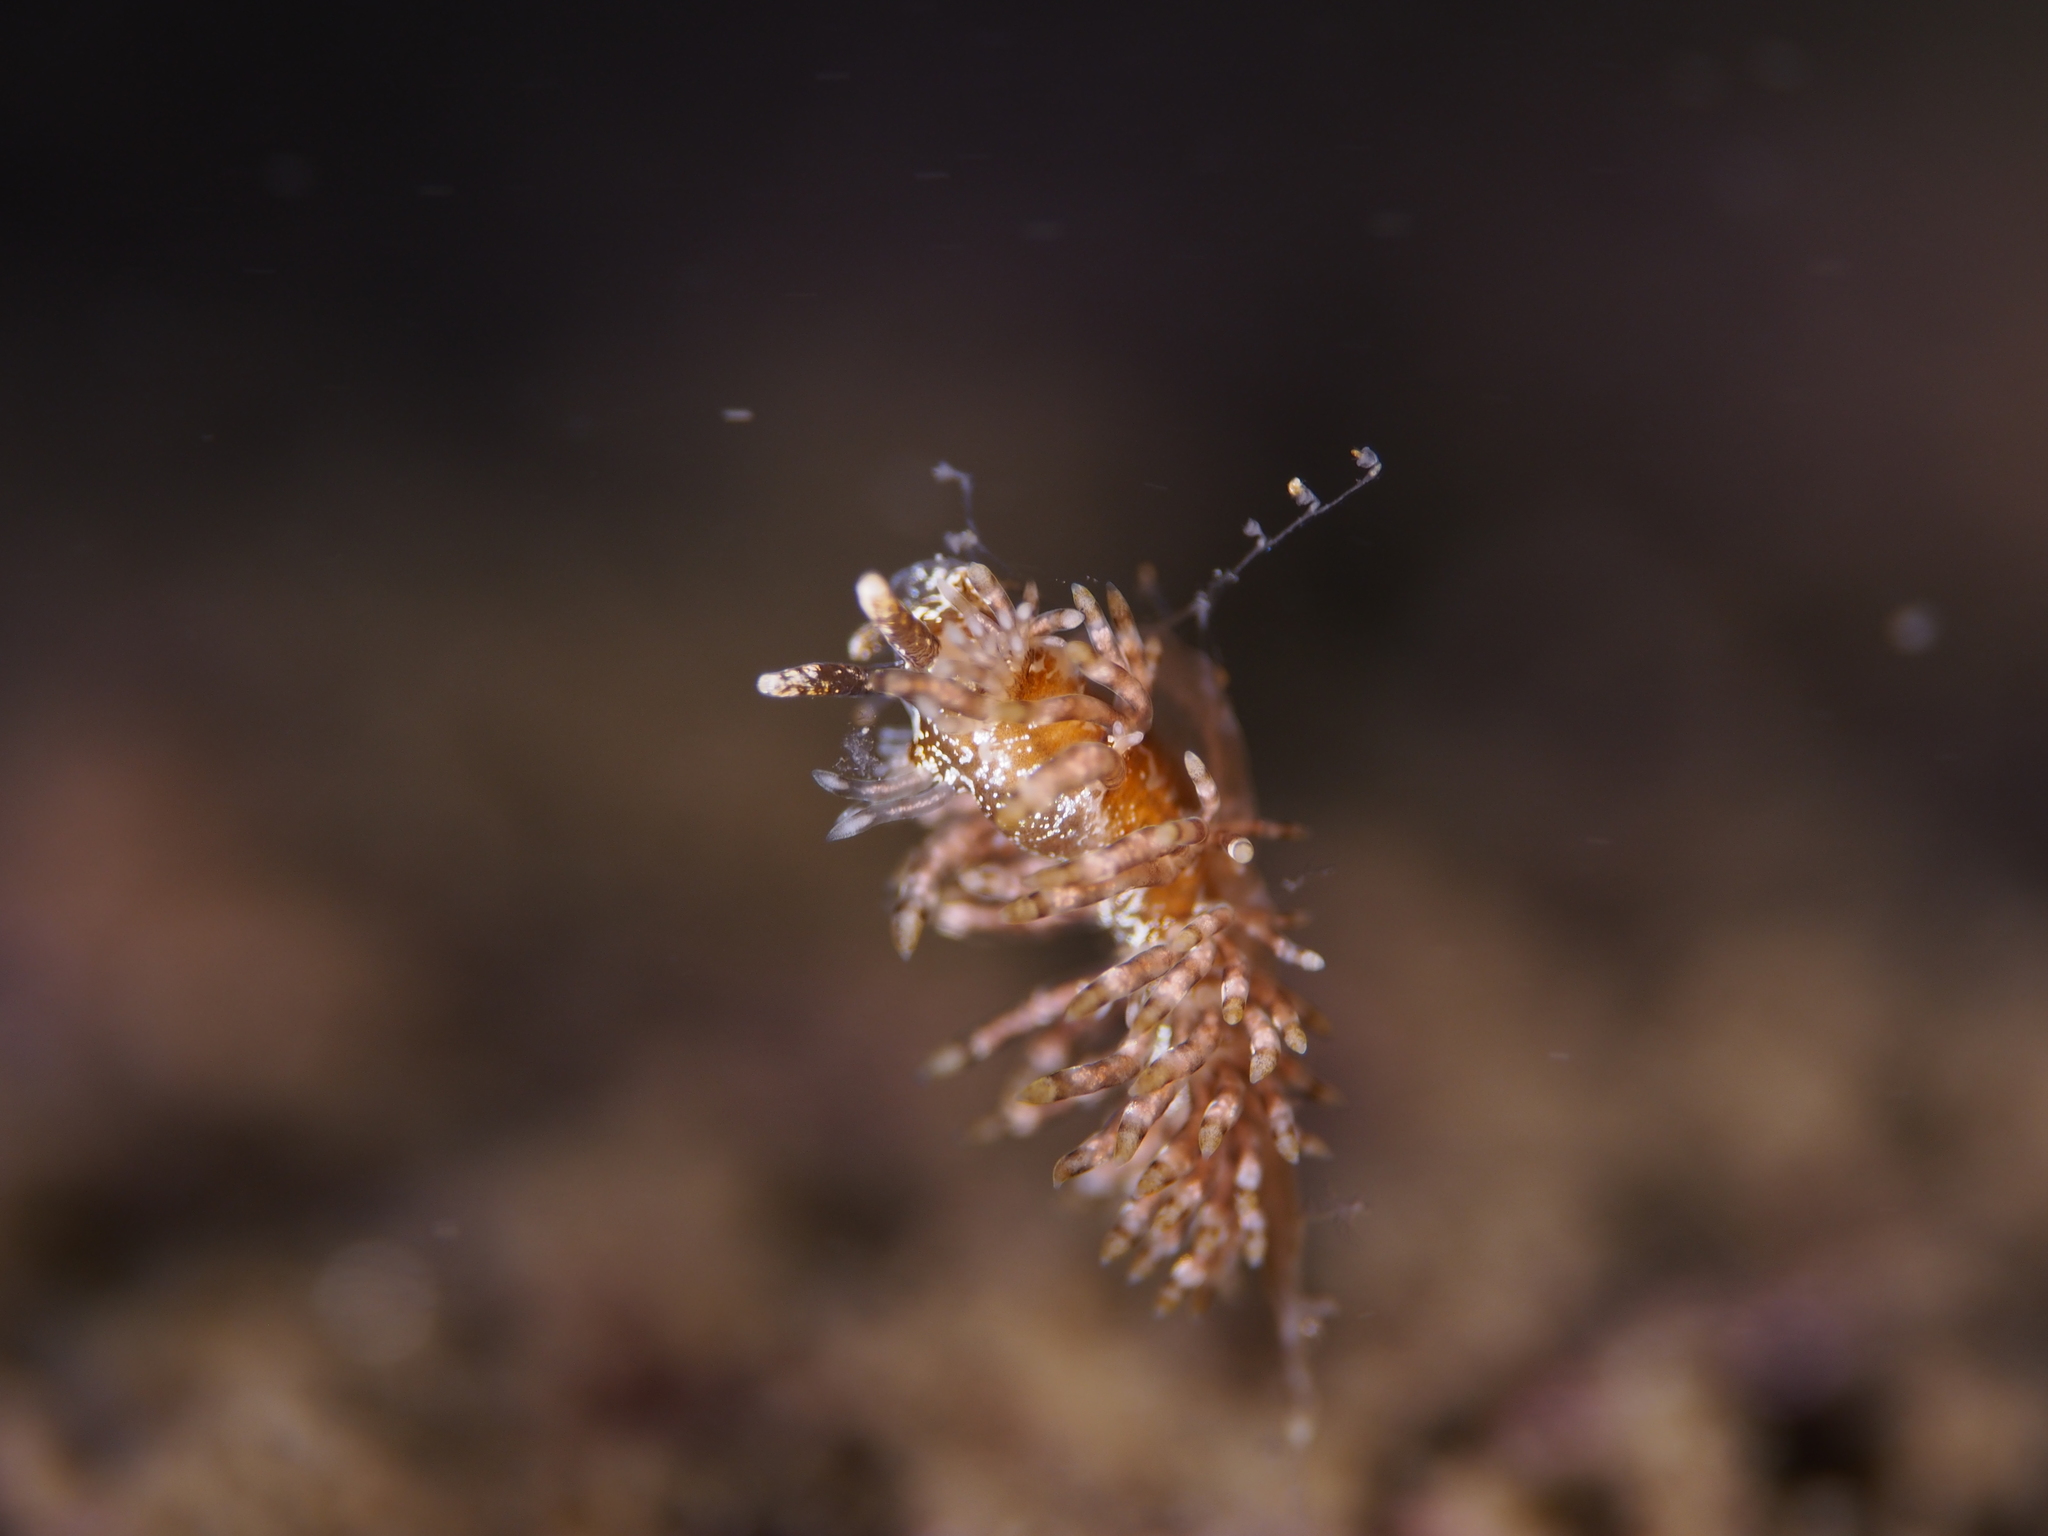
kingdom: Animalia
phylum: Mollusca
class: Gastropoda
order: Nudibranchia
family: Eubranchidae
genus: Eubranchus
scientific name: Eubranchus vittatus
